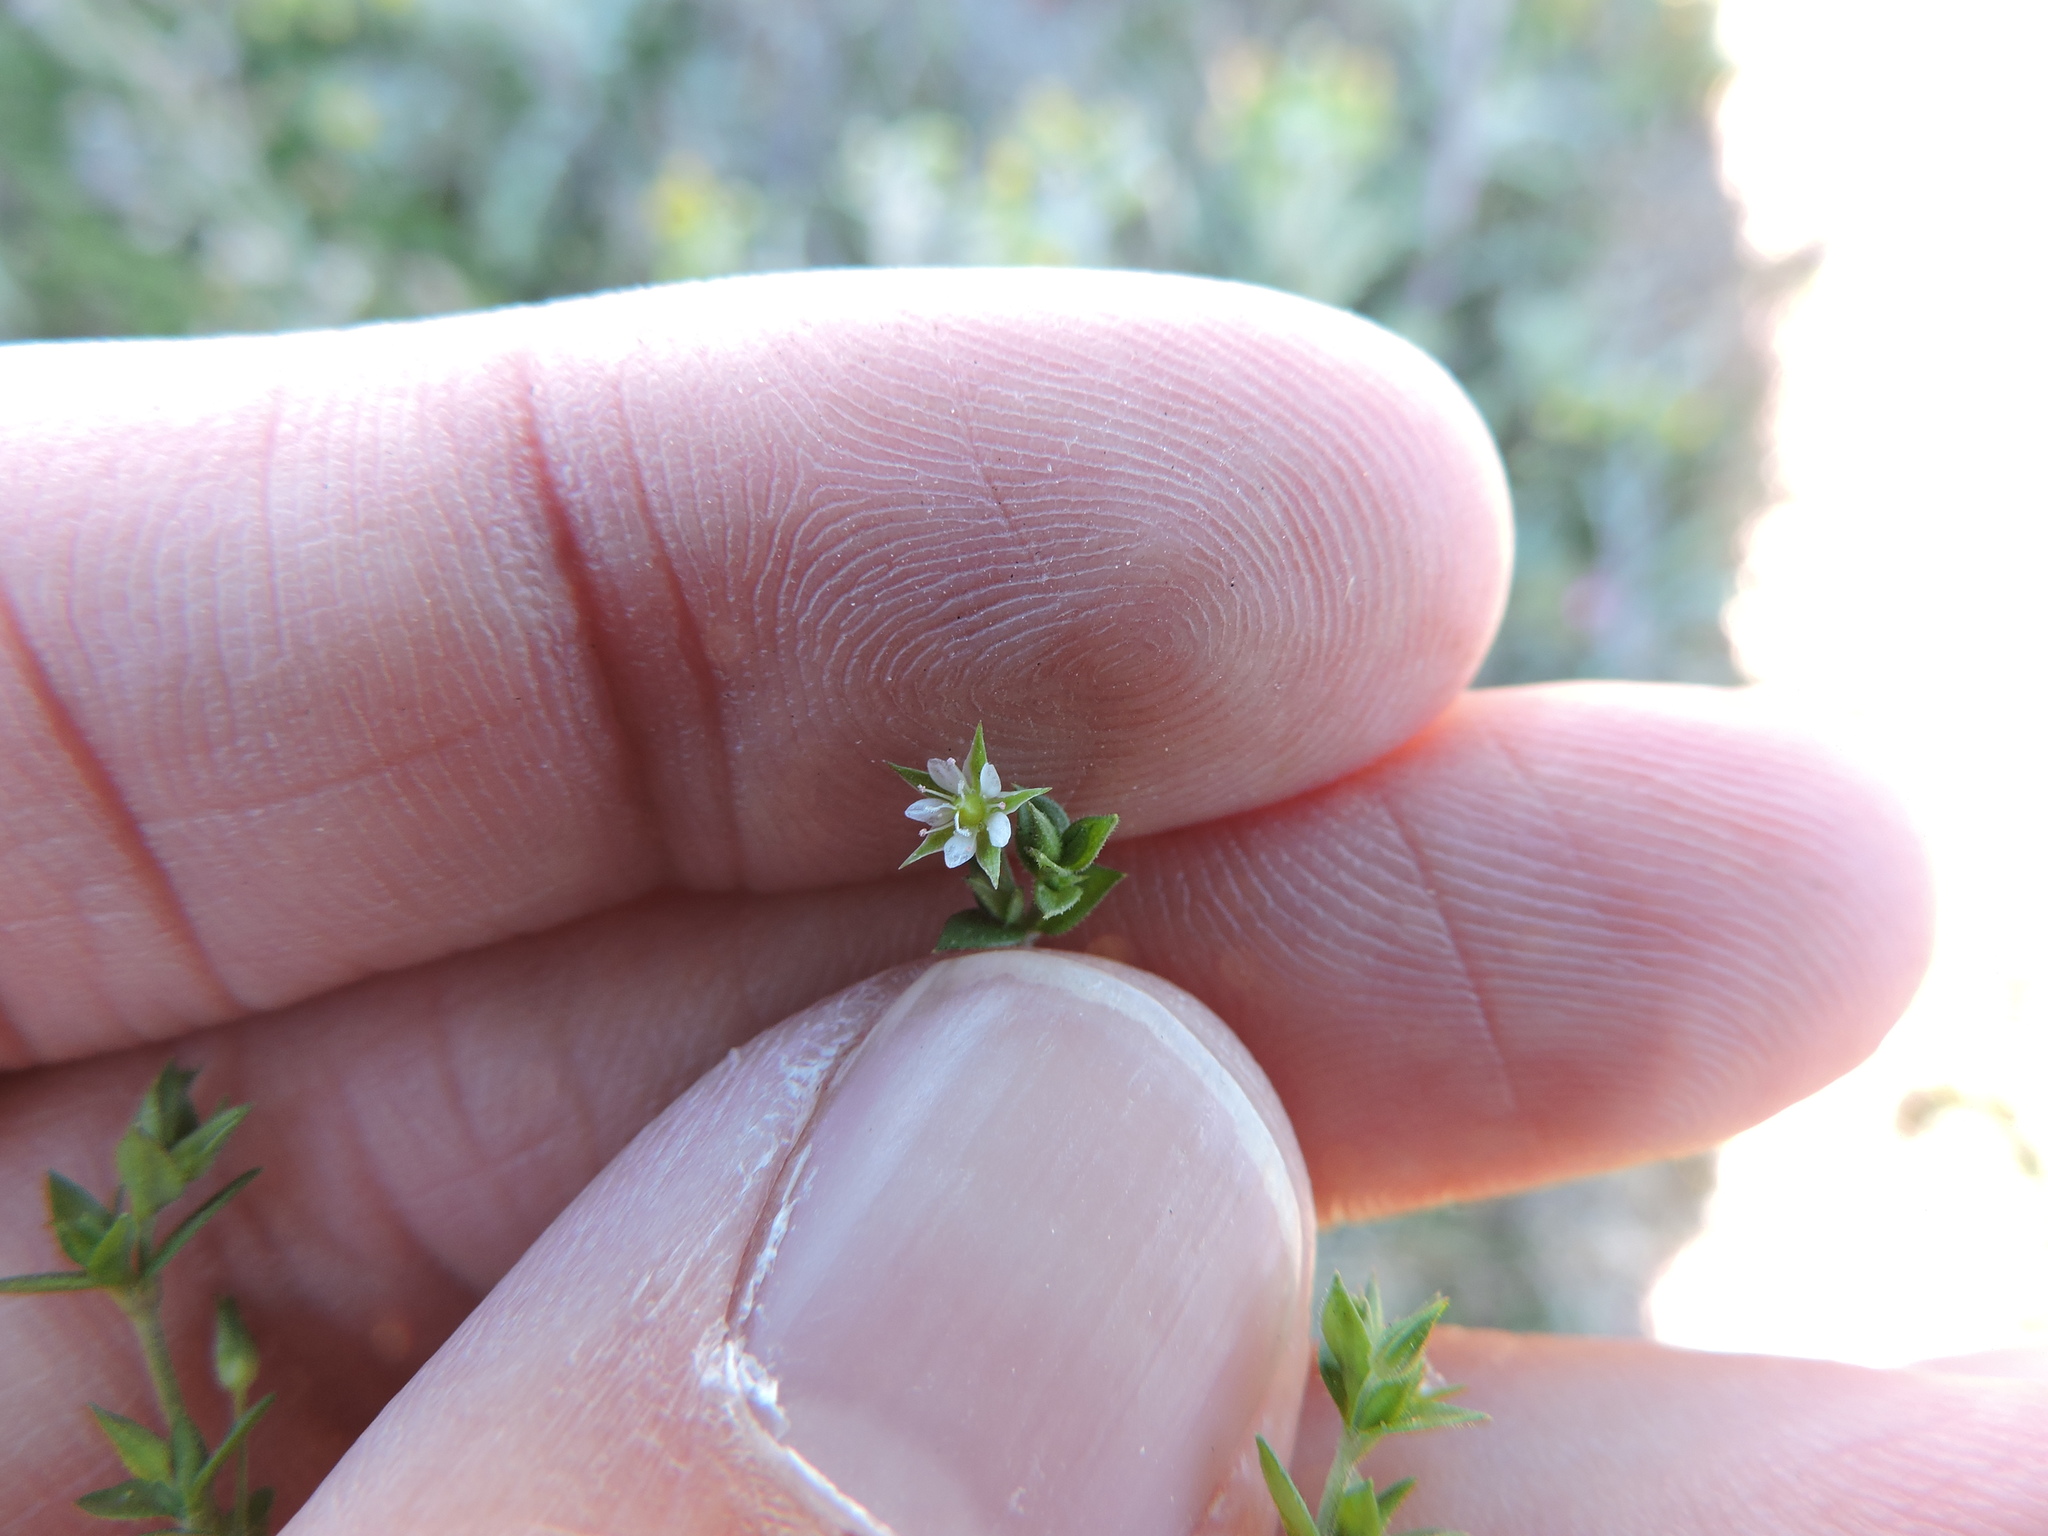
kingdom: Plantae
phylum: Tracheophyta
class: Magnoliopsida
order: Caryophyllales
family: Caryophyllaceae
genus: Arenaria
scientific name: Arenaria serpyllifolia
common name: Thyme-leaved sandwort
